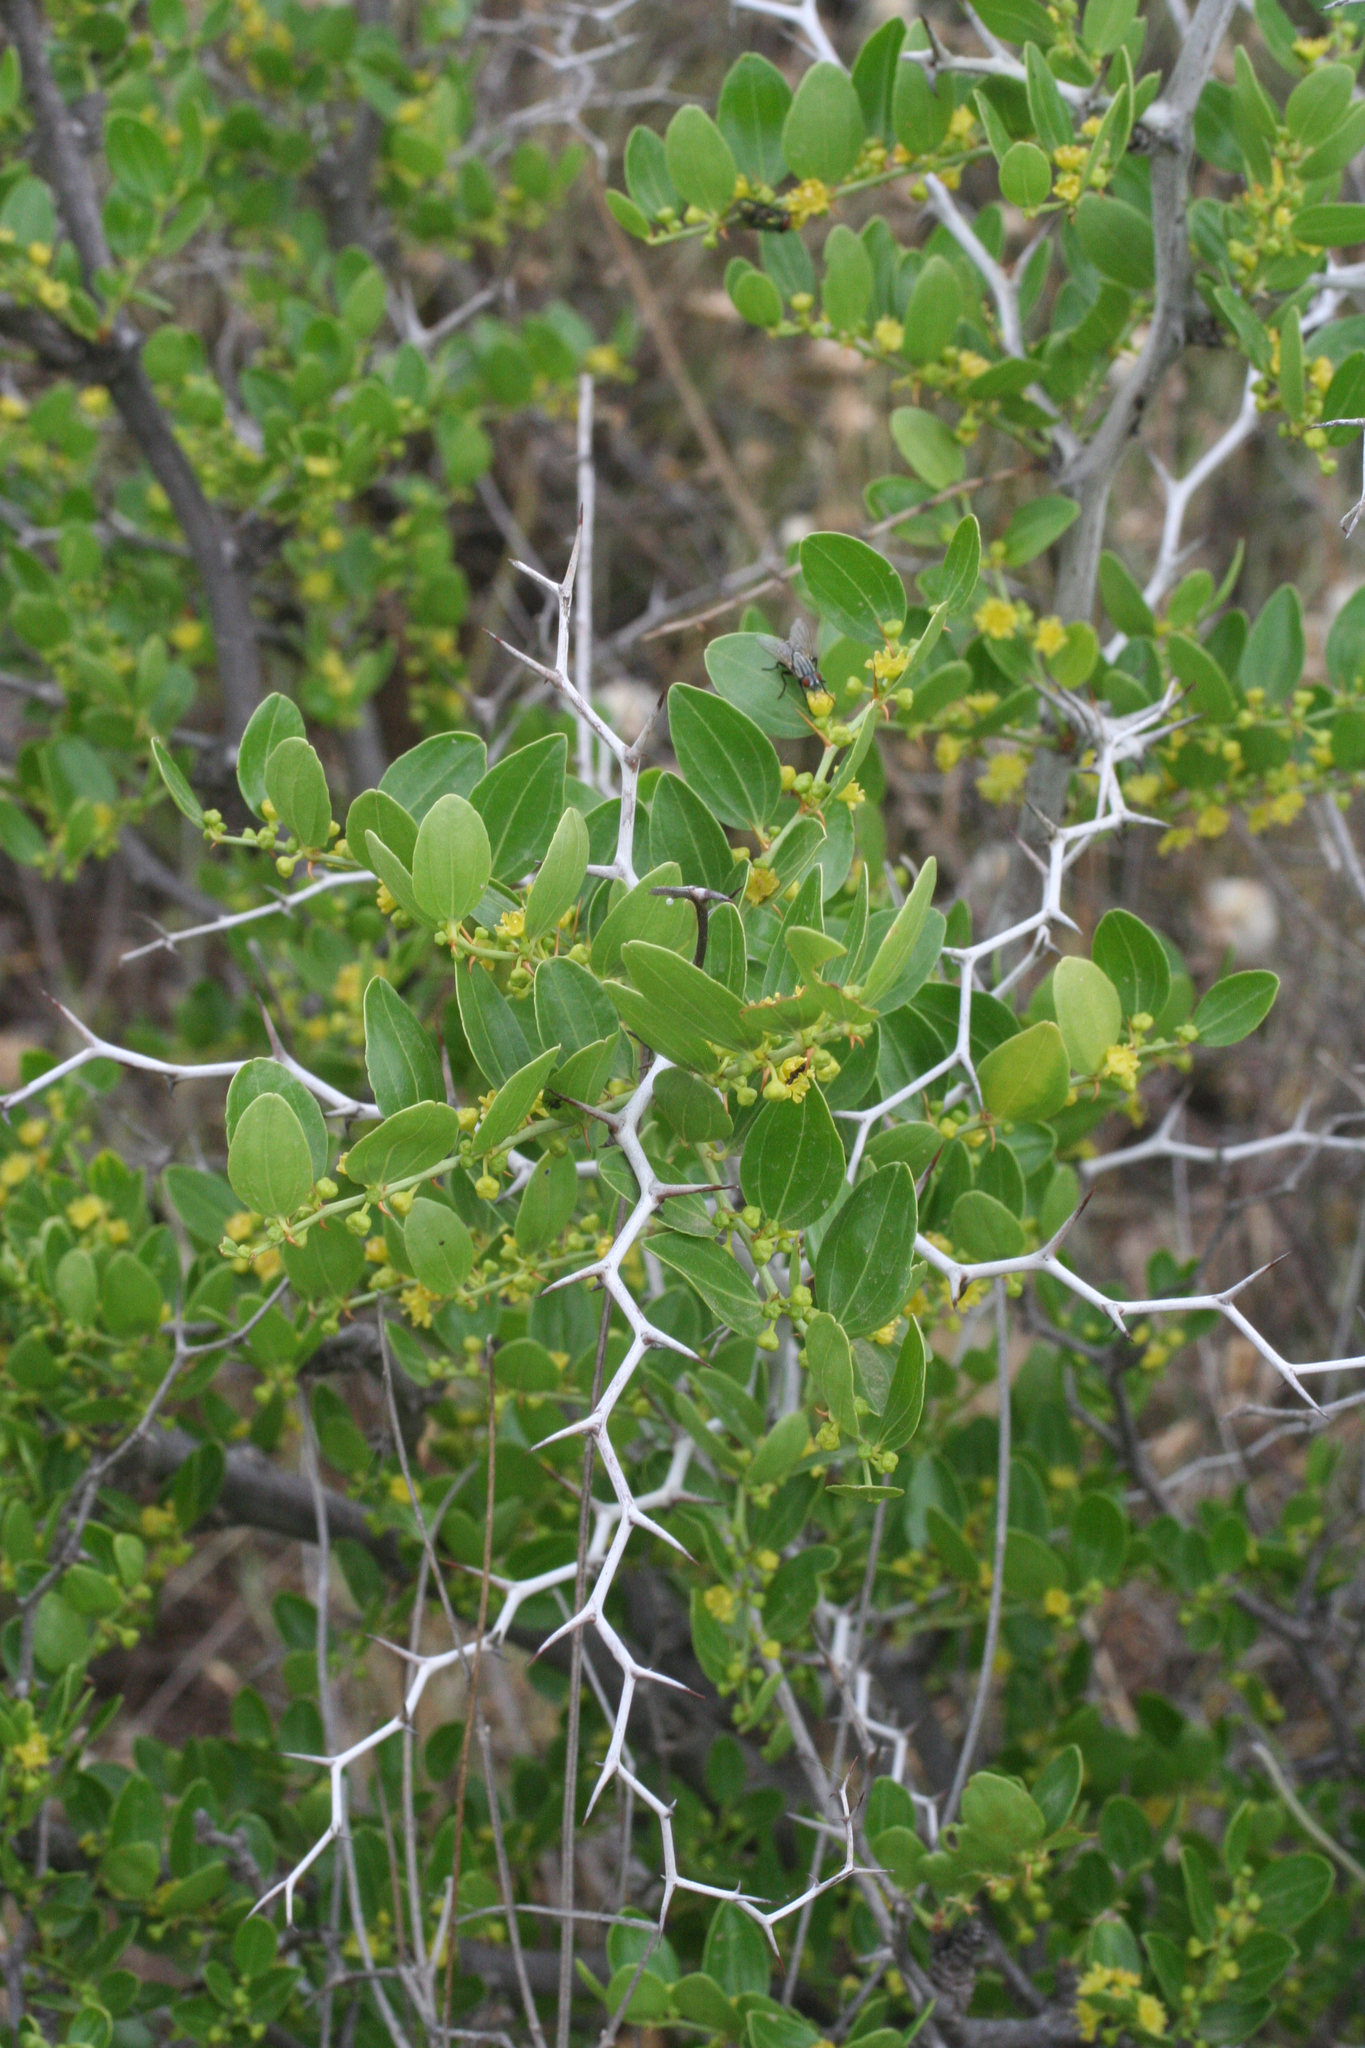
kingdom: Plantae
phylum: Tracheophyta
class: Magnoliopsida
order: Rosales
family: Rhamnaceae
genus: Ziziphus
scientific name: Ziziphus lotus
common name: Lotus
